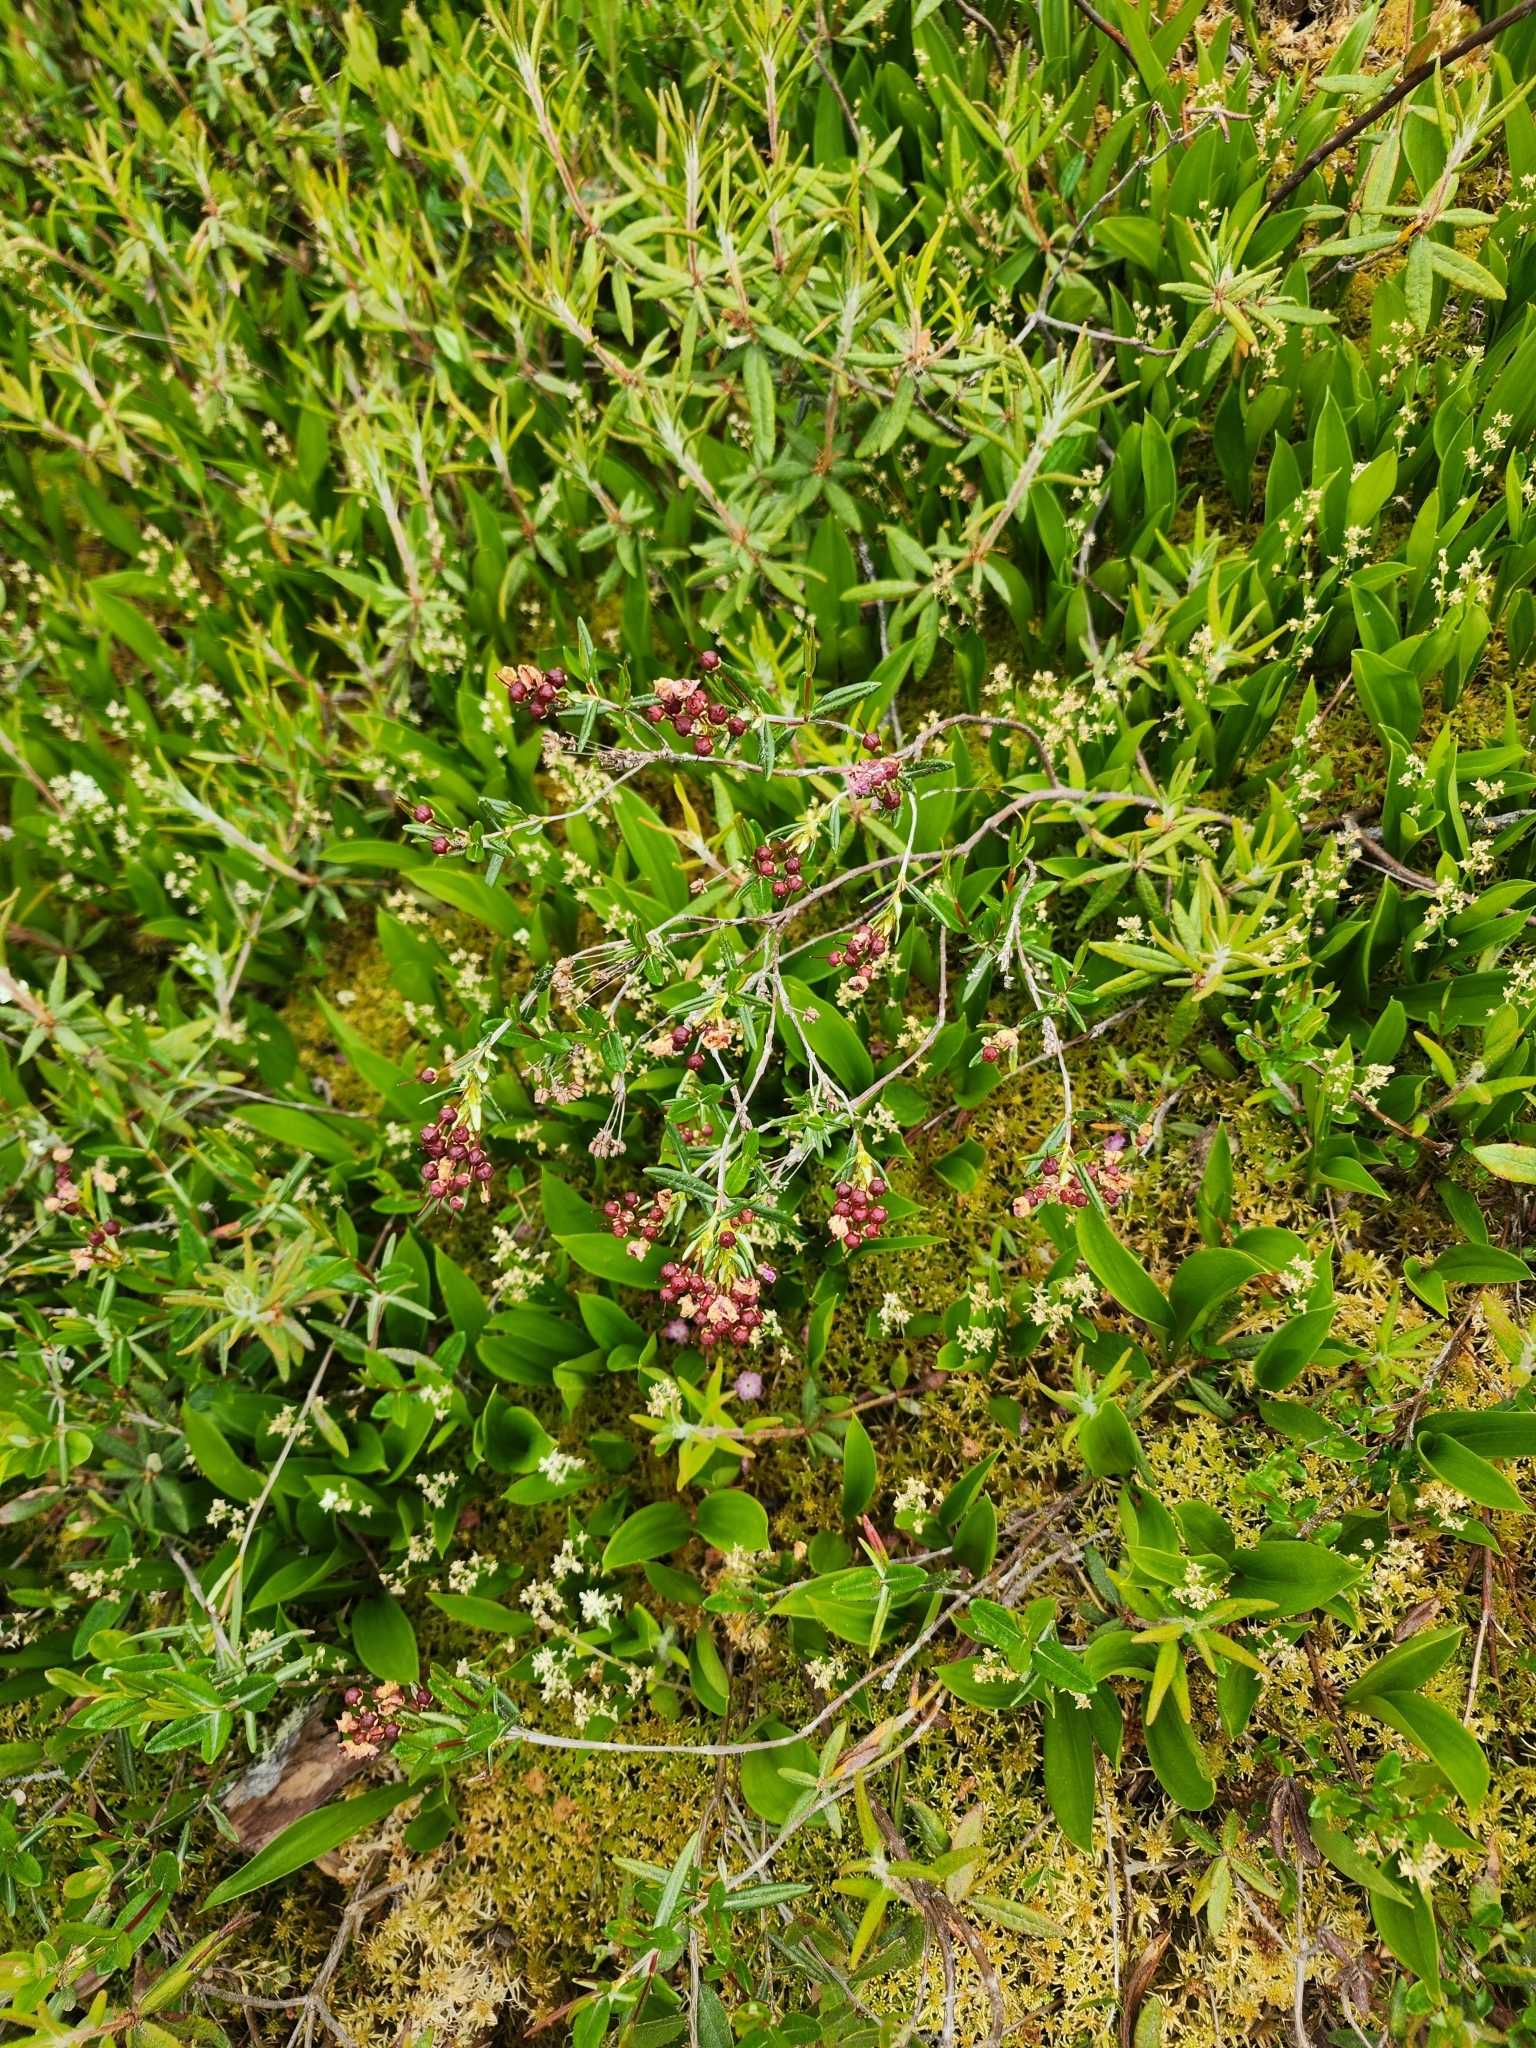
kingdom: Plantae
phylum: Tracheophyta
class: Magnoliopsida
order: Ericales
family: Ericaceae
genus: Kalmia
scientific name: Kalmia polifolia
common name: Bog-laurel
